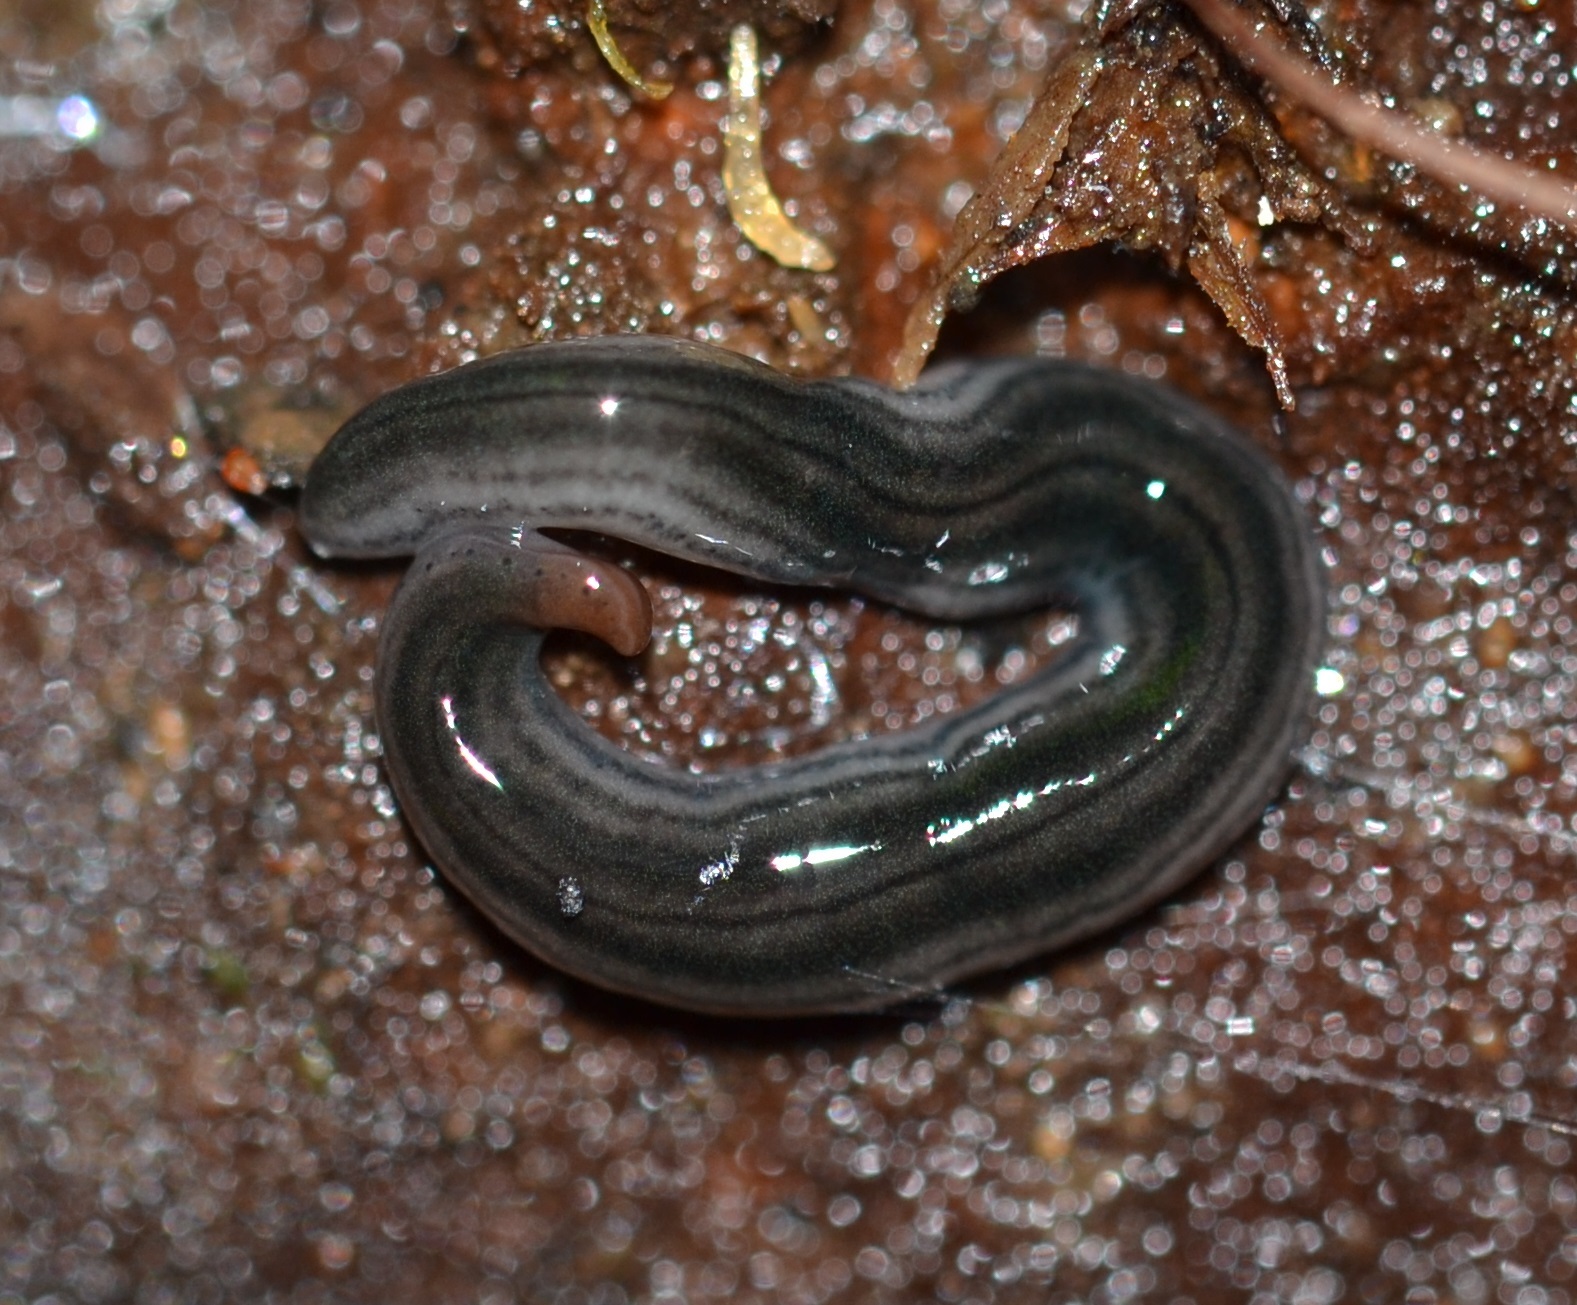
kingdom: Animalia
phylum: Platyhelminthes
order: Tricladida
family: Geoplanidae
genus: Endeavouria
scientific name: Endeavouria septemlineata
